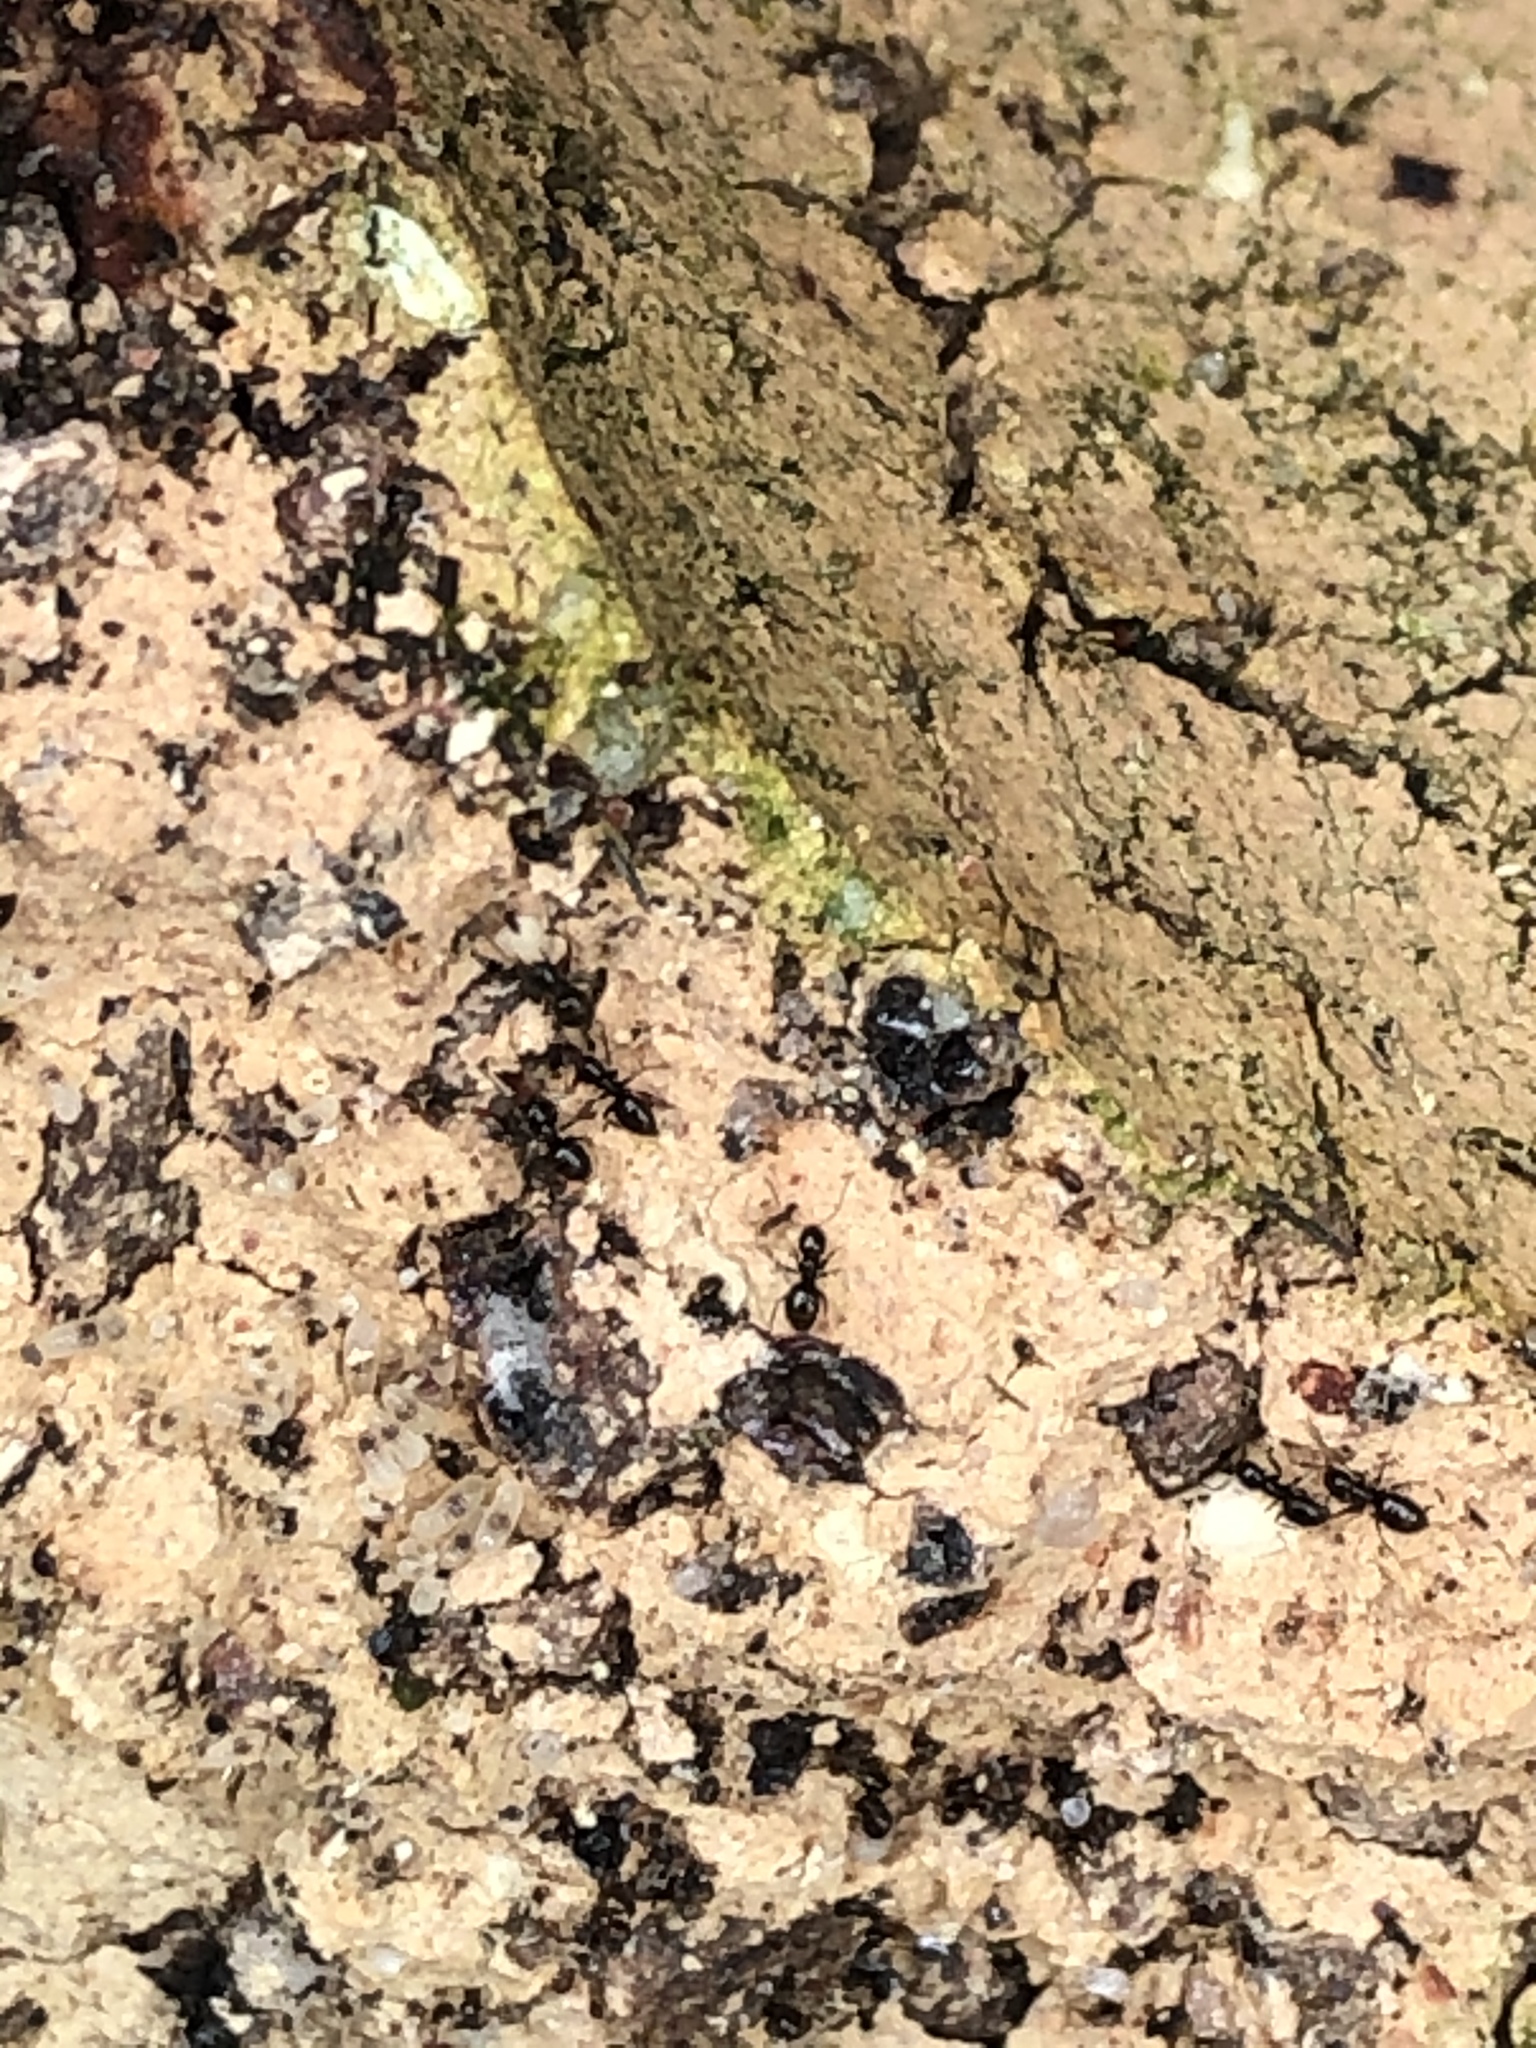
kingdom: Animalia
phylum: Arthropoda
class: Insecta
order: Hymenoptera
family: Formicidae
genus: Brachymyrmex
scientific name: Brachymyrmex patagonicus
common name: Dark rover ant
